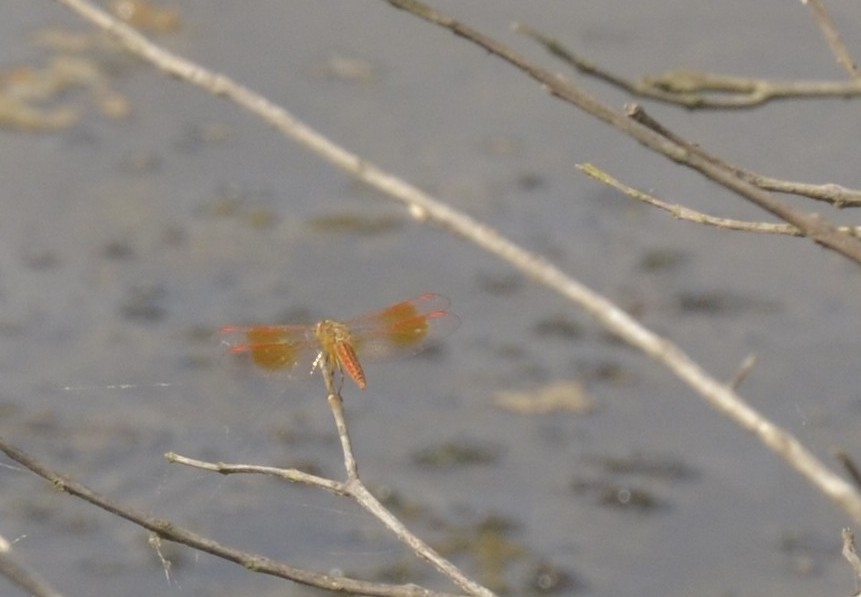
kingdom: Animalia
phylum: Arthropoda
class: Insecta
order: Odonata
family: Libellulidae
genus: Brachythemis
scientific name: Brachythemis contaminata
